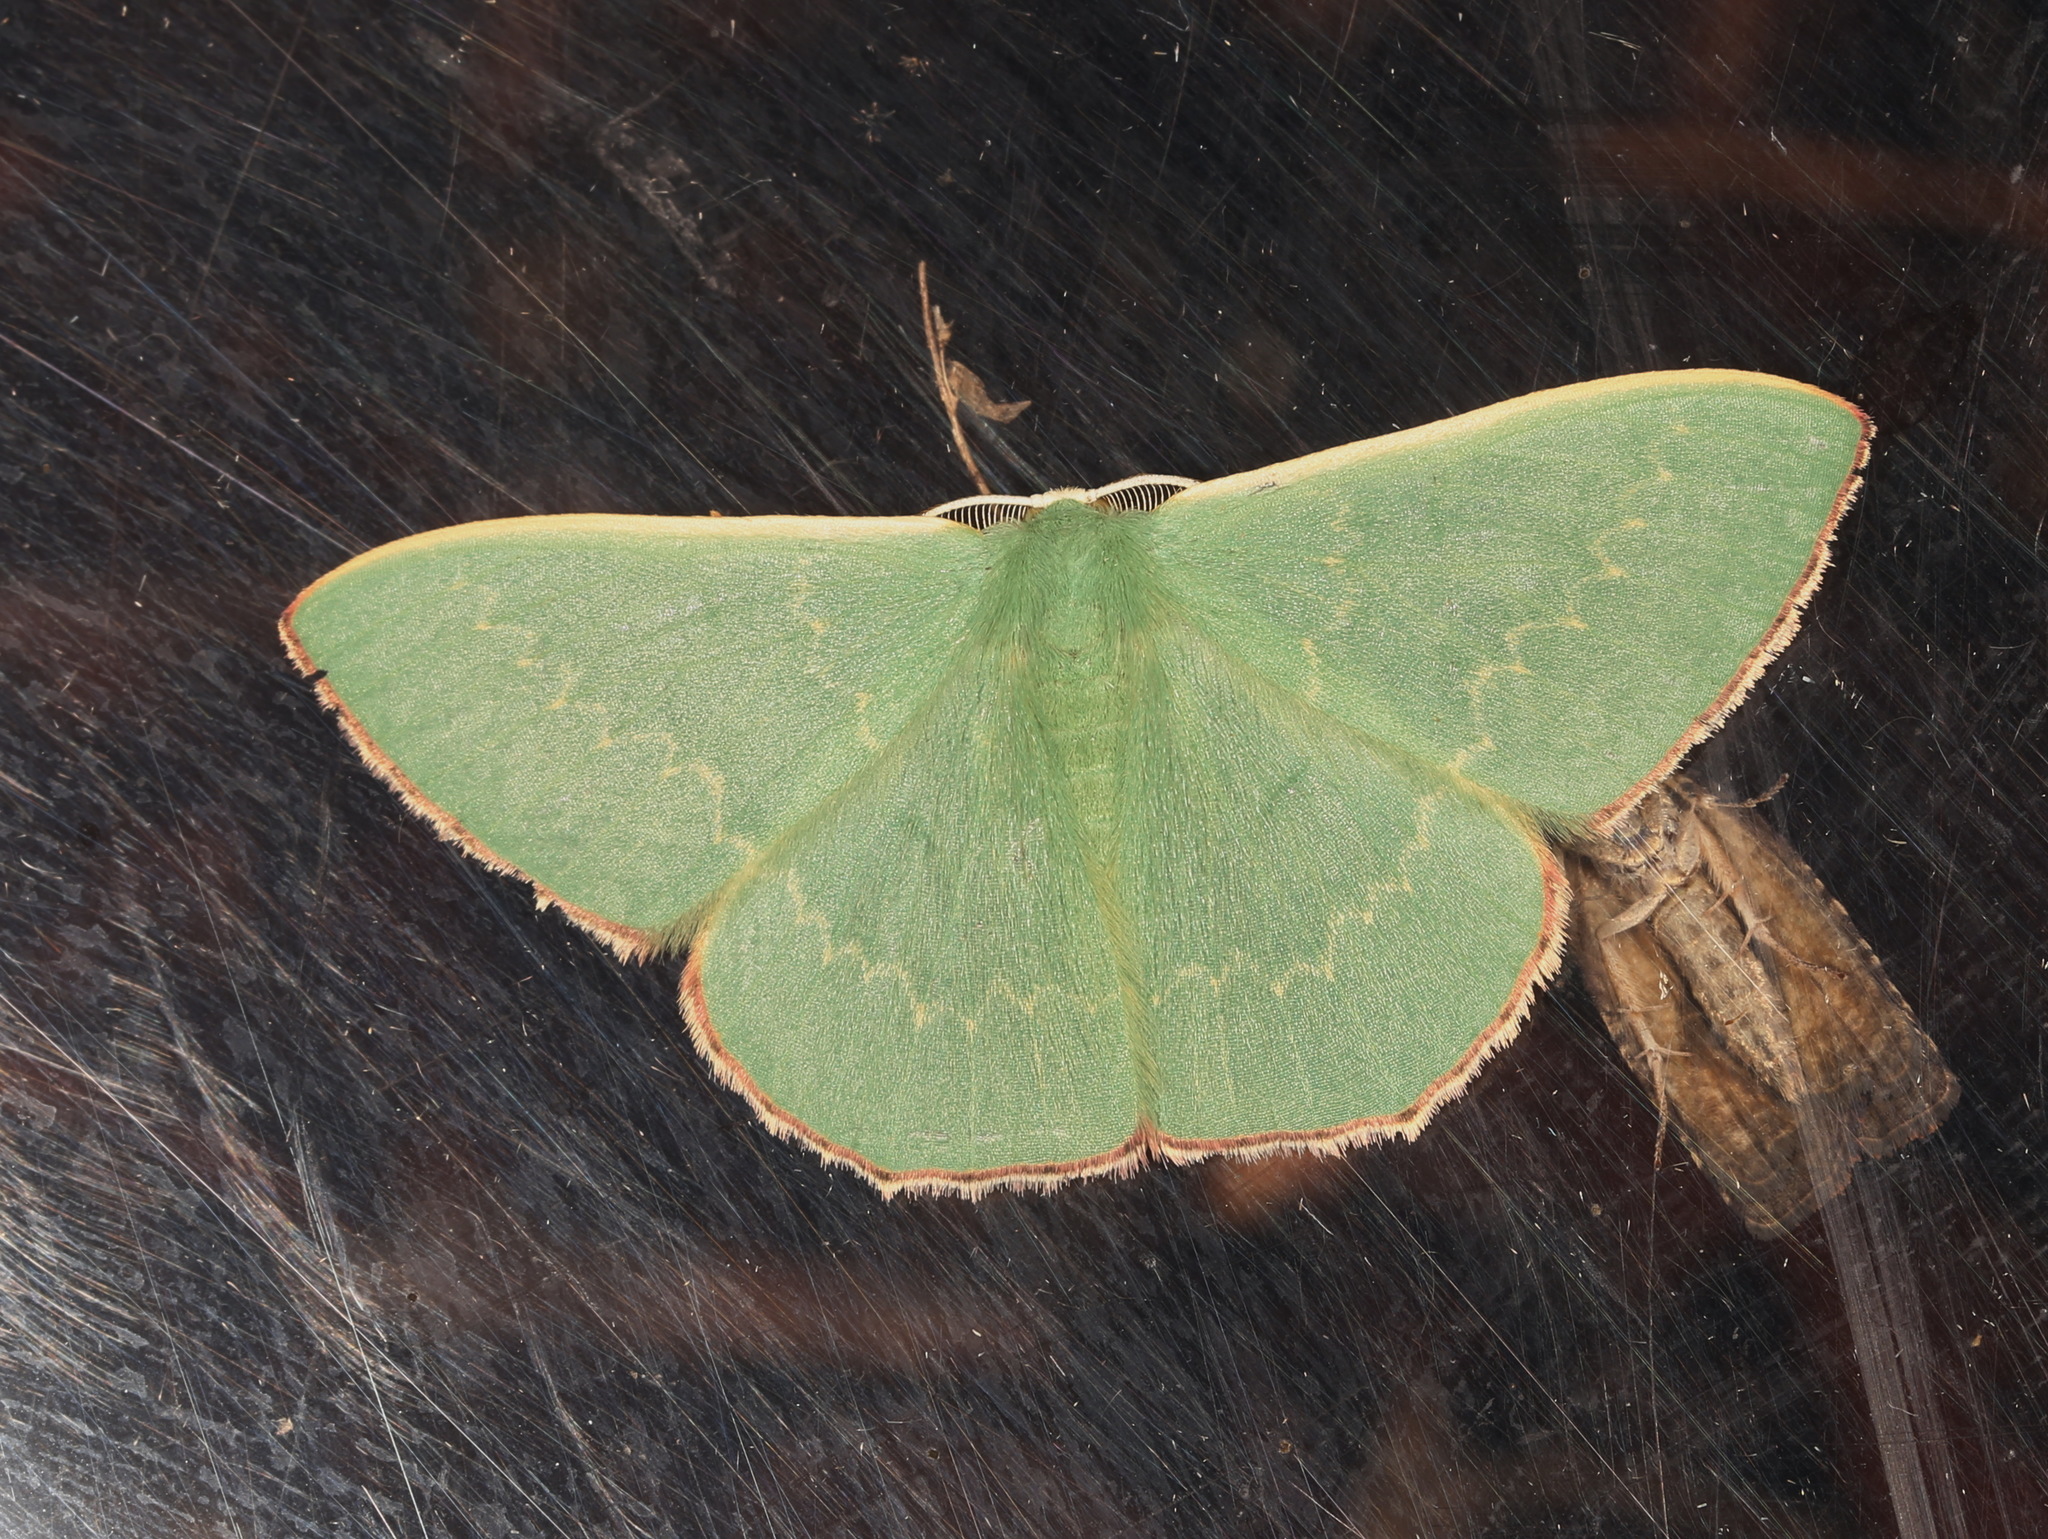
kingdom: Animalia
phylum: Arthropoda
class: Insecta
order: Lepidoptera
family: Geometridae
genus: Prasinocyma
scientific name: Prasinocyma semicrocea
